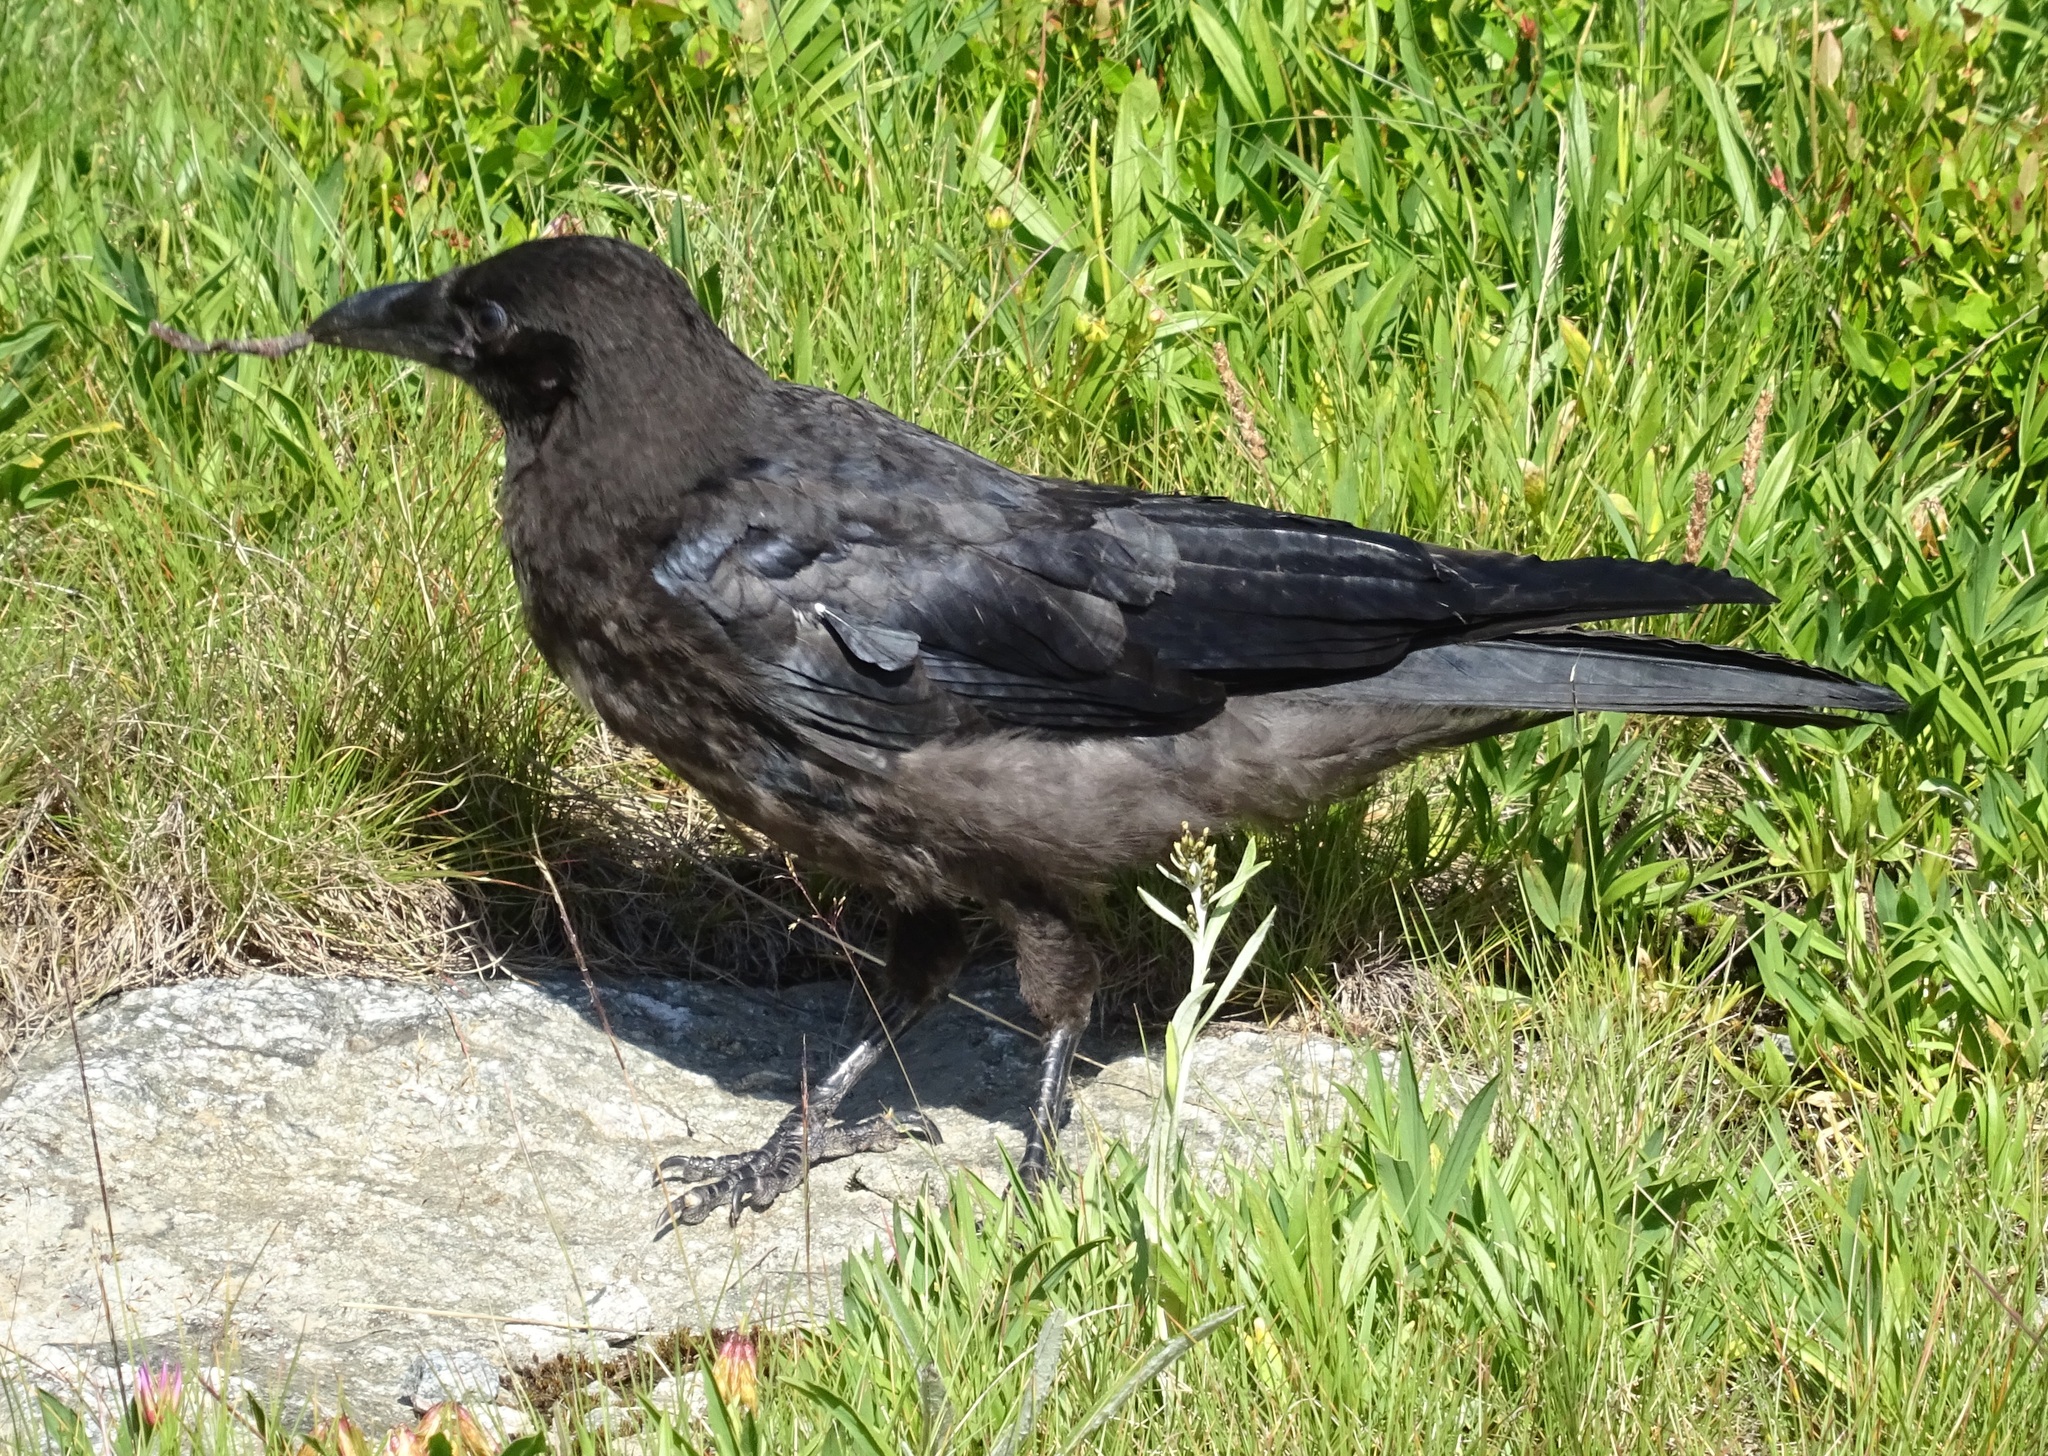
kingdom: Animalia
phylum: Chordata
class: Aves
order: Passeriformes
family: Corvidae
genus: Corvus
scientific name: Corvus corone
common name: Carrion crow
